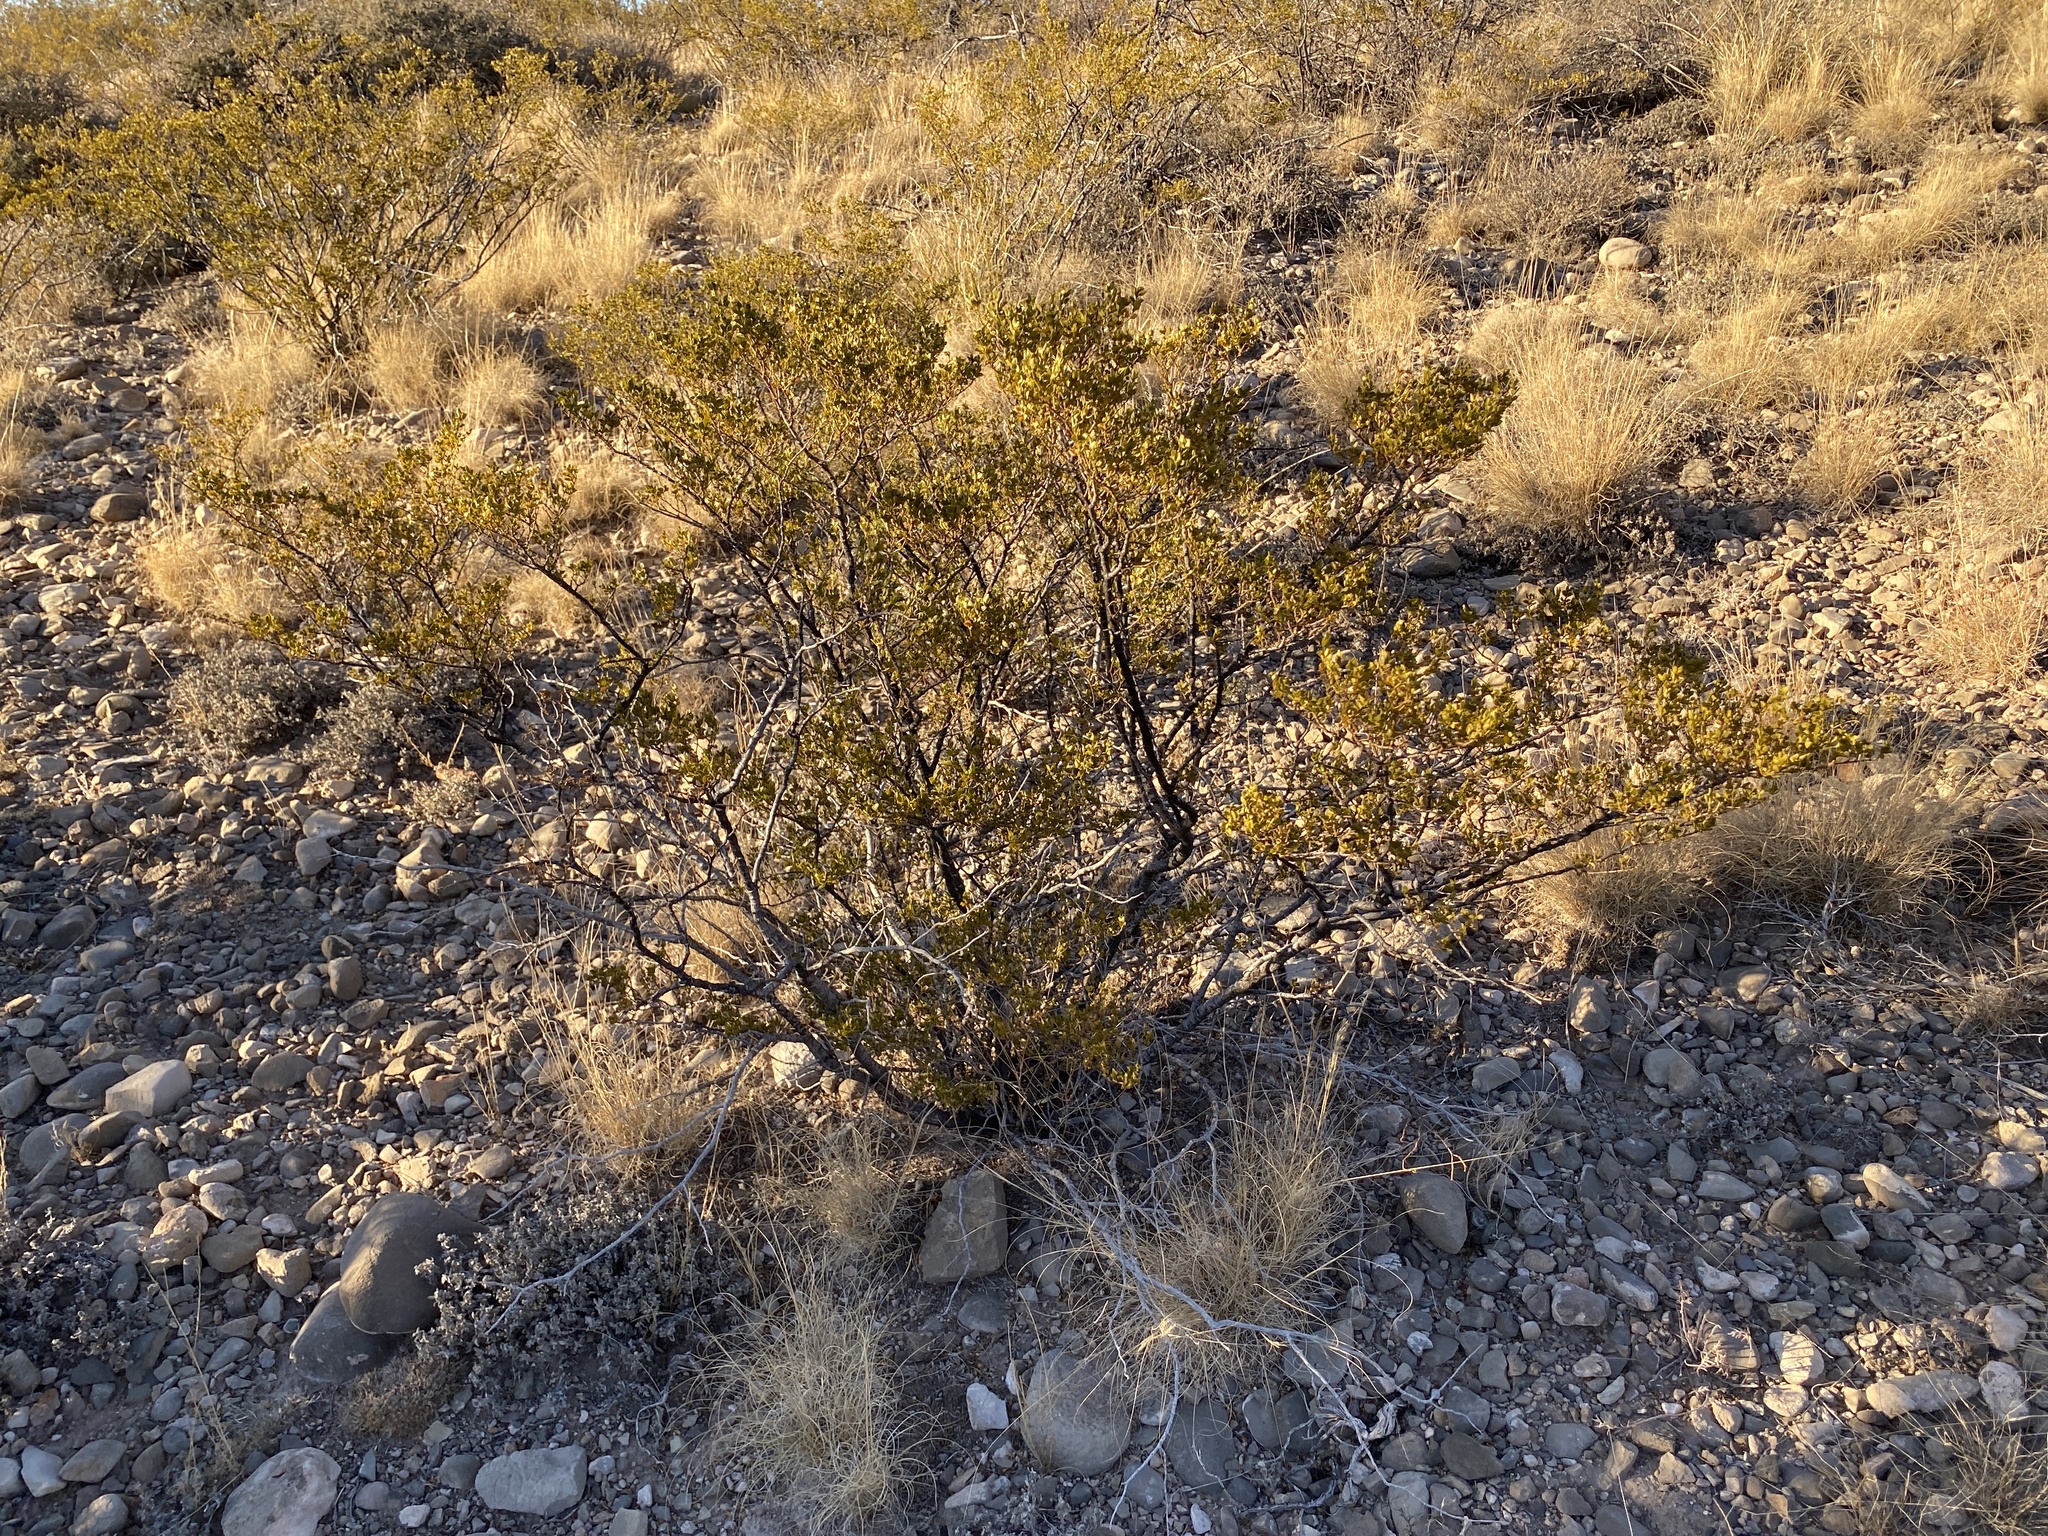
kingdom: Plantae
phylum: Tracheophyta
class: Magnoliopsida
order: Zygophyllales
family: Zygophyllaceae
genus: Larrea
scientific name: Larrea tridentata
